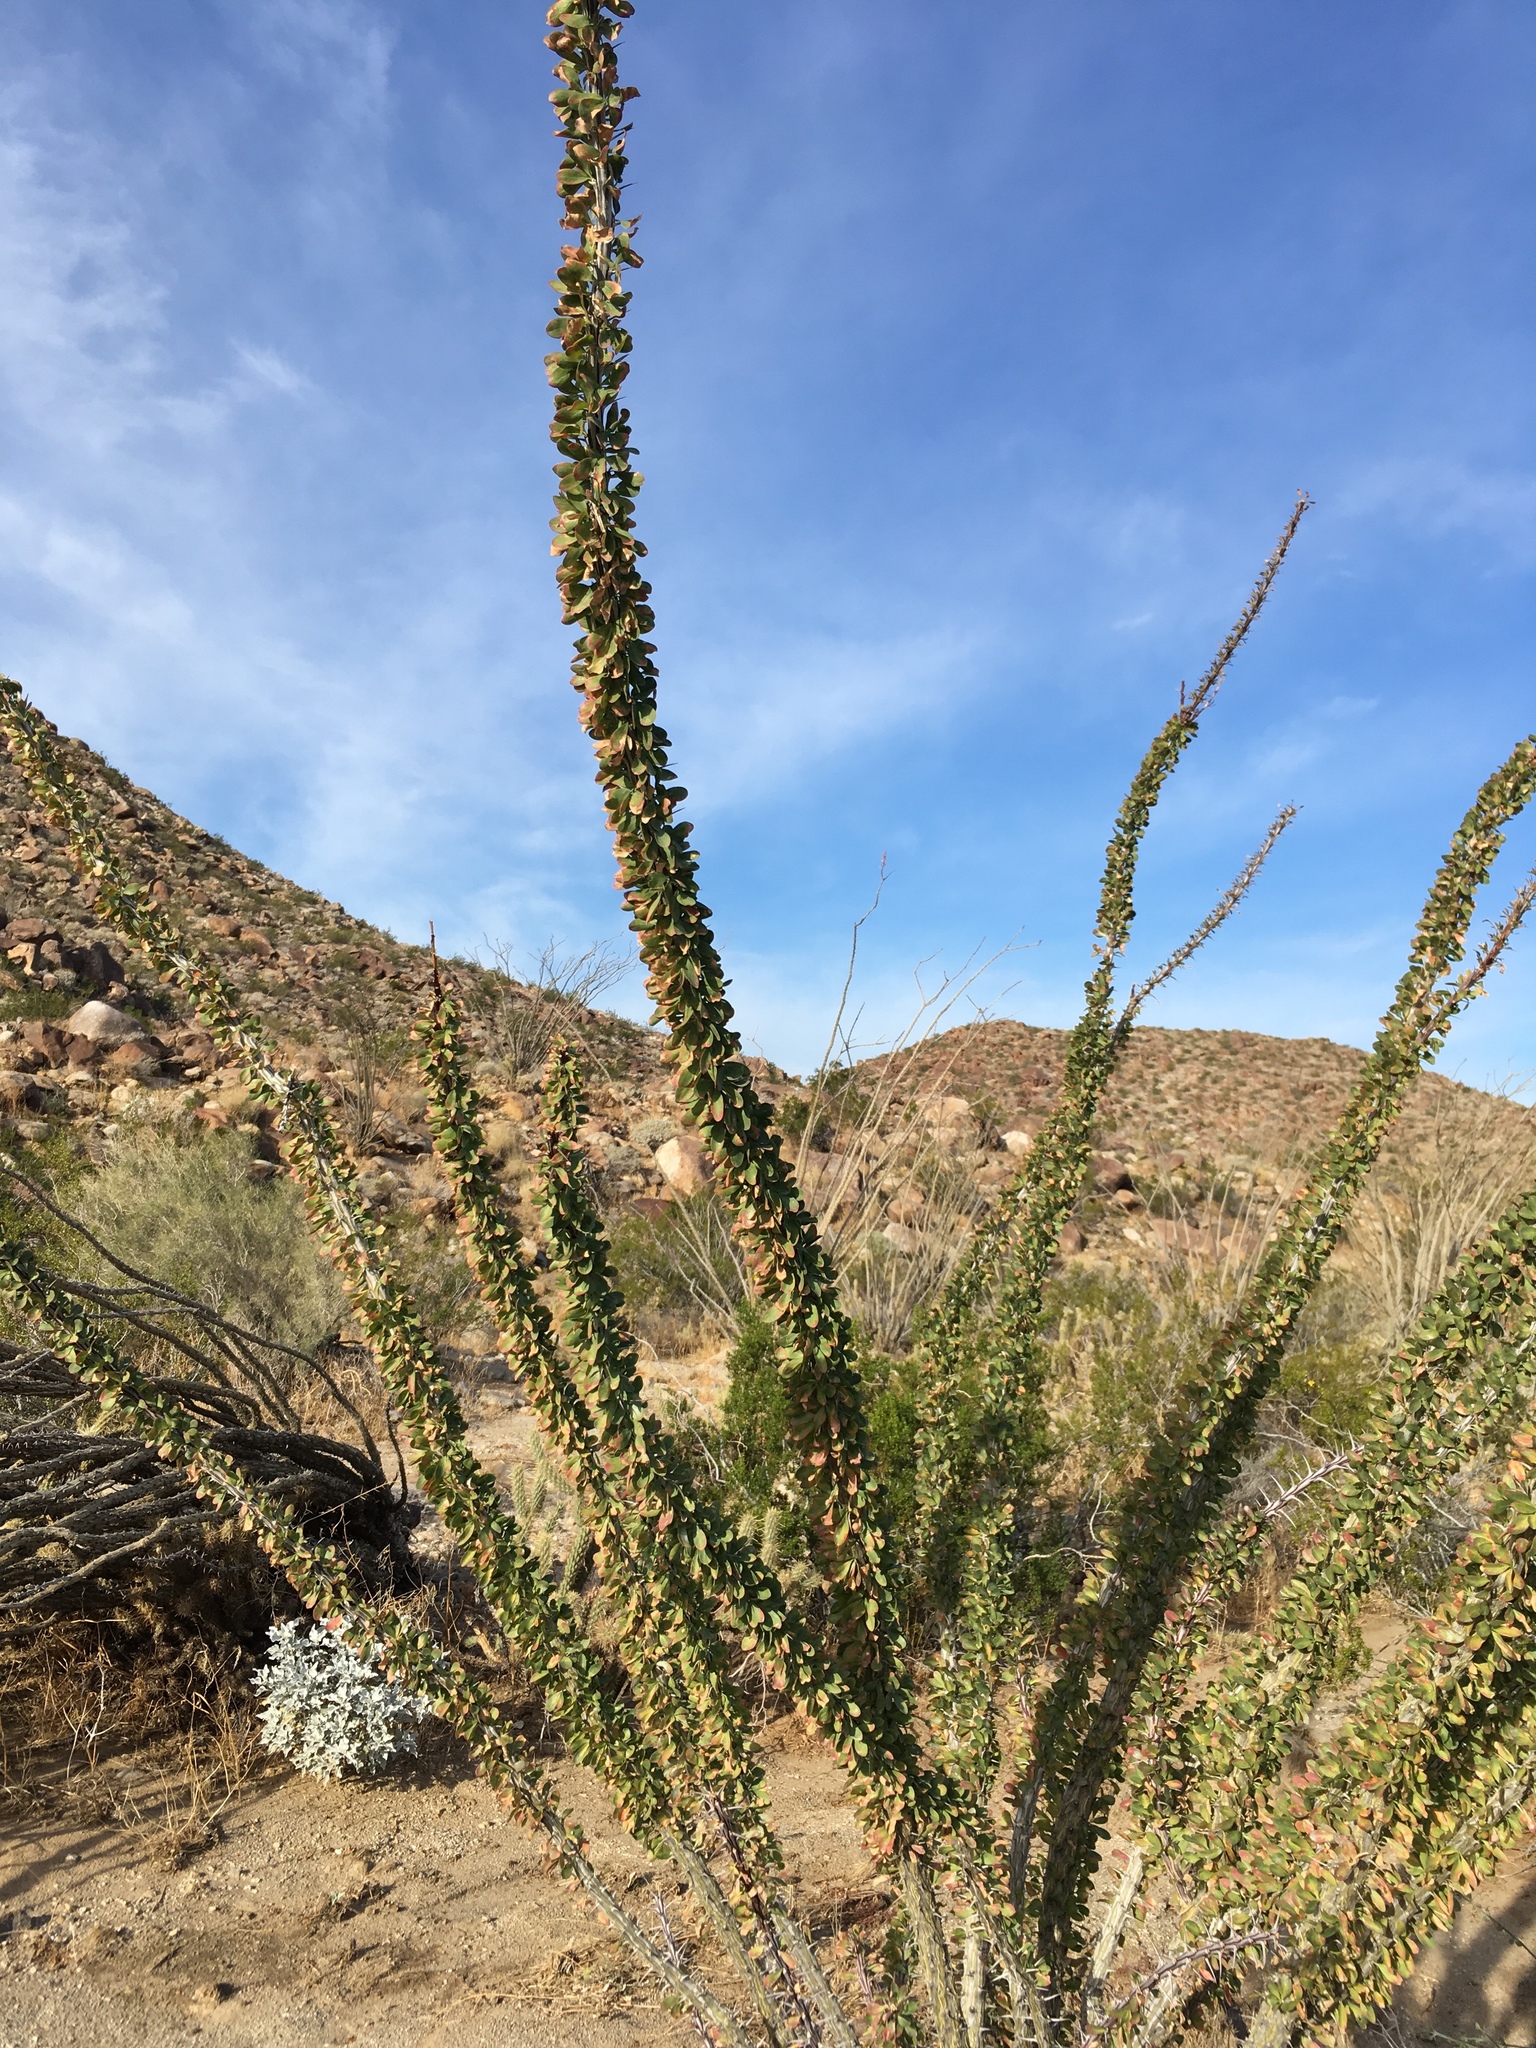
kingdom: Plantae
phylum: Tracheophyta
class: Magnoliopsida
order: Ericales
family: Fouquieriaceae
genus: Fouquieria
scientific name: Fouquieria splendens
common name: Vine-cactus
